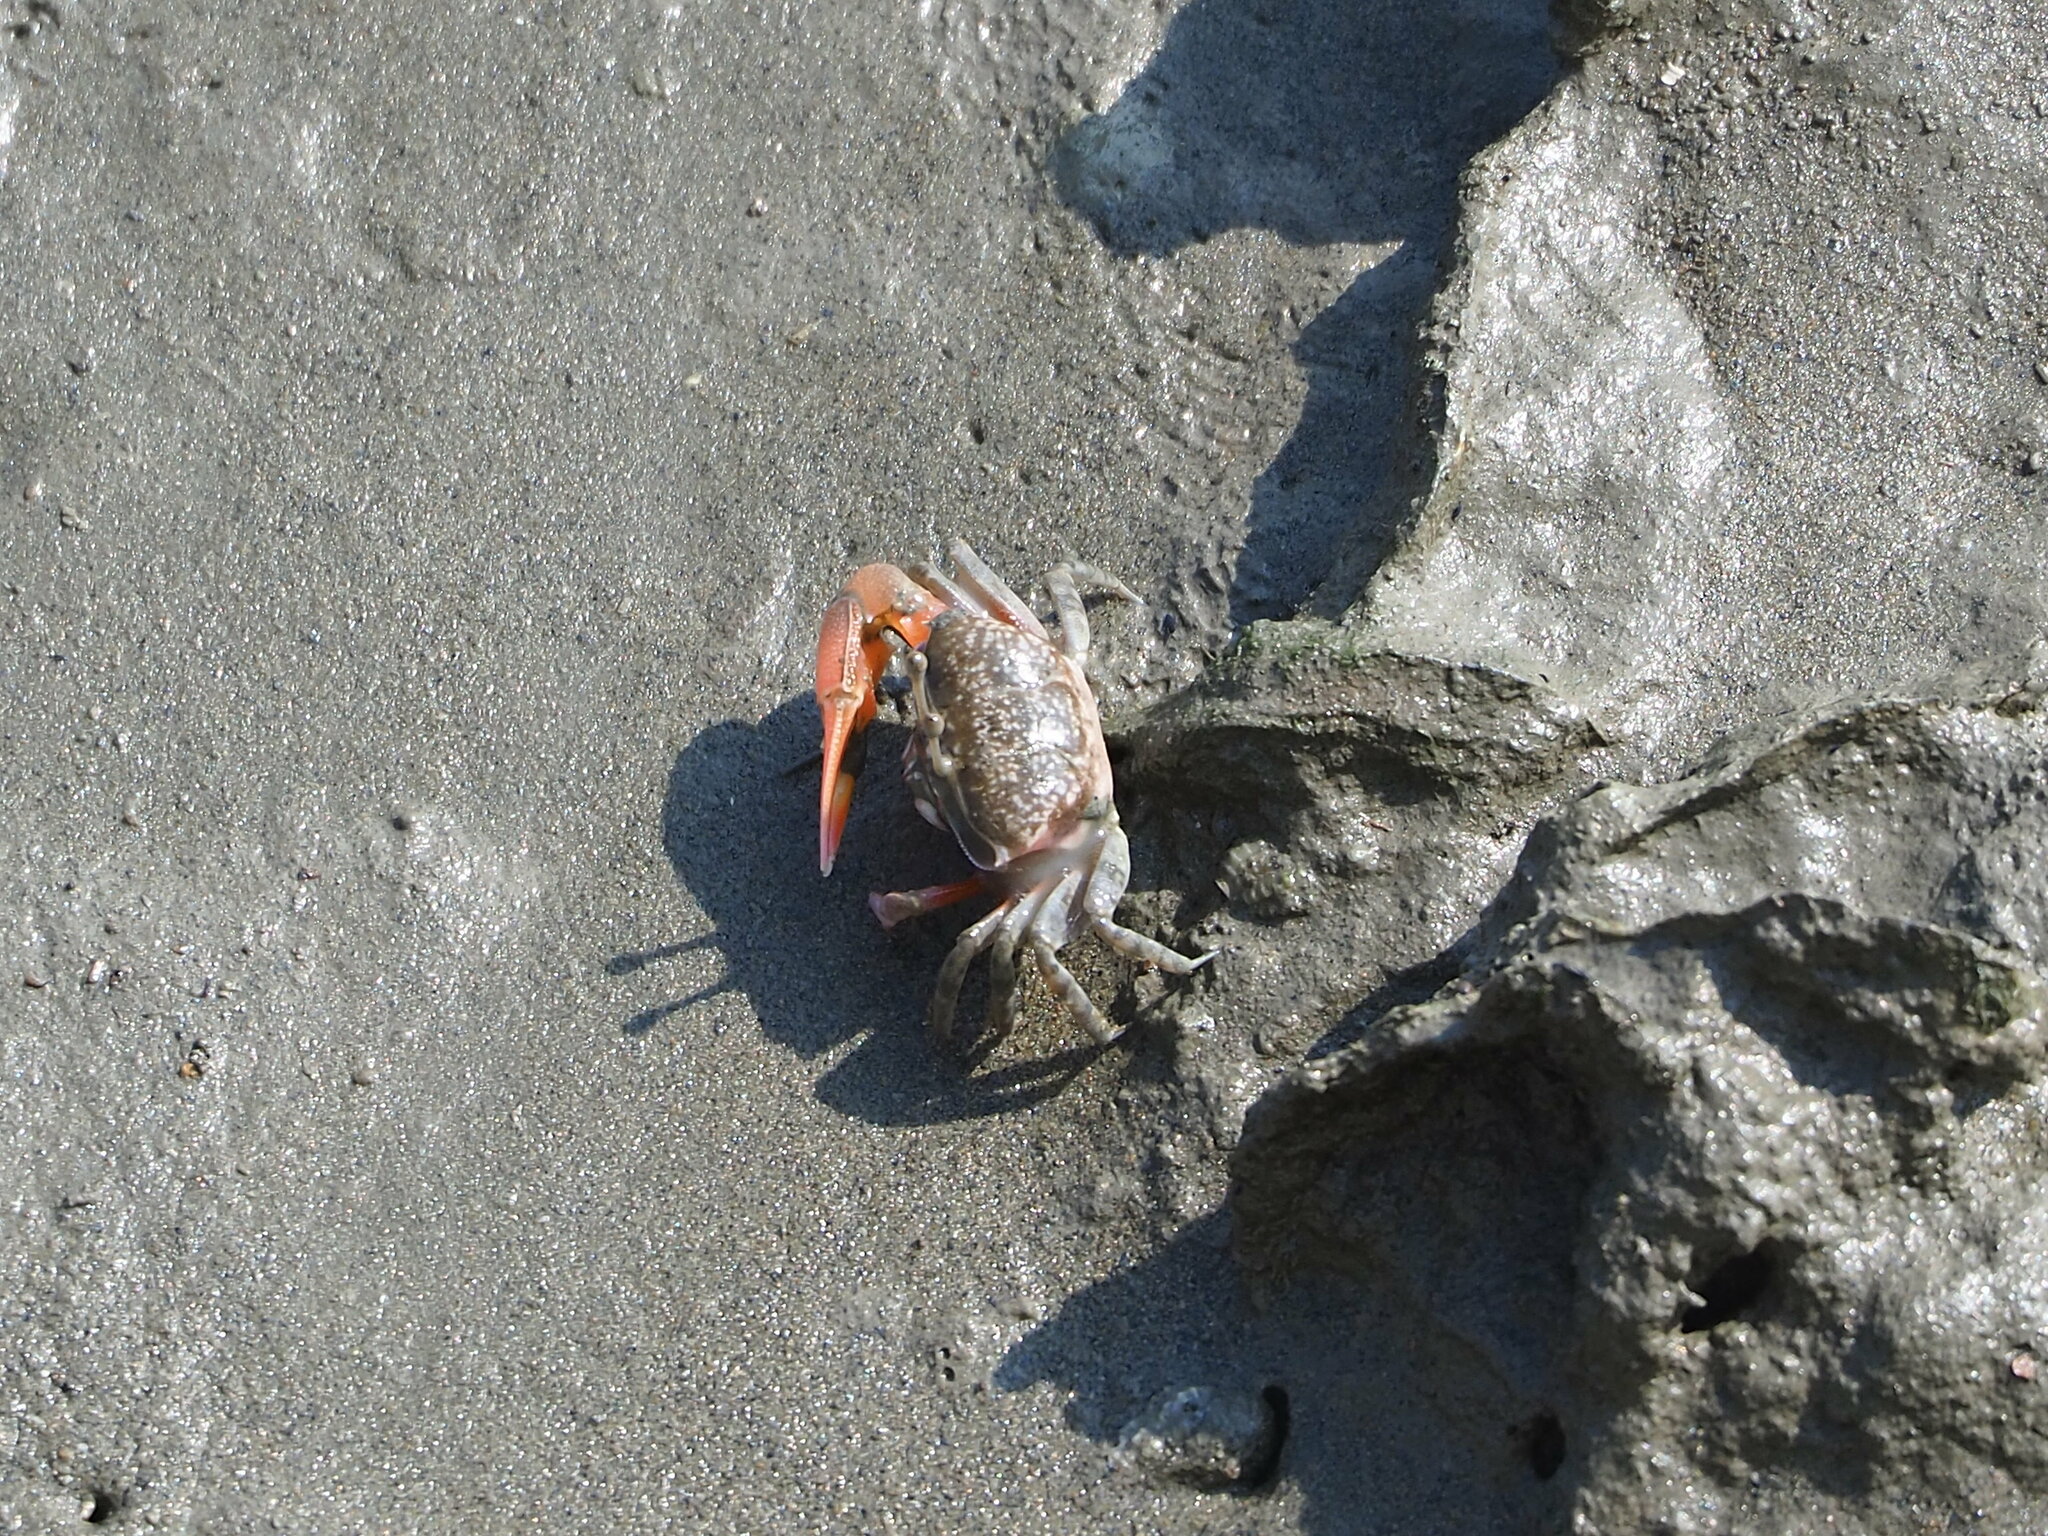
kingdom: Animalia
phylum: Arthropoda
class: Malacostraca
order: Decapoda
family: Ocypodidae
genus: Gelasimus
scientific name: Gelasimus borealis
